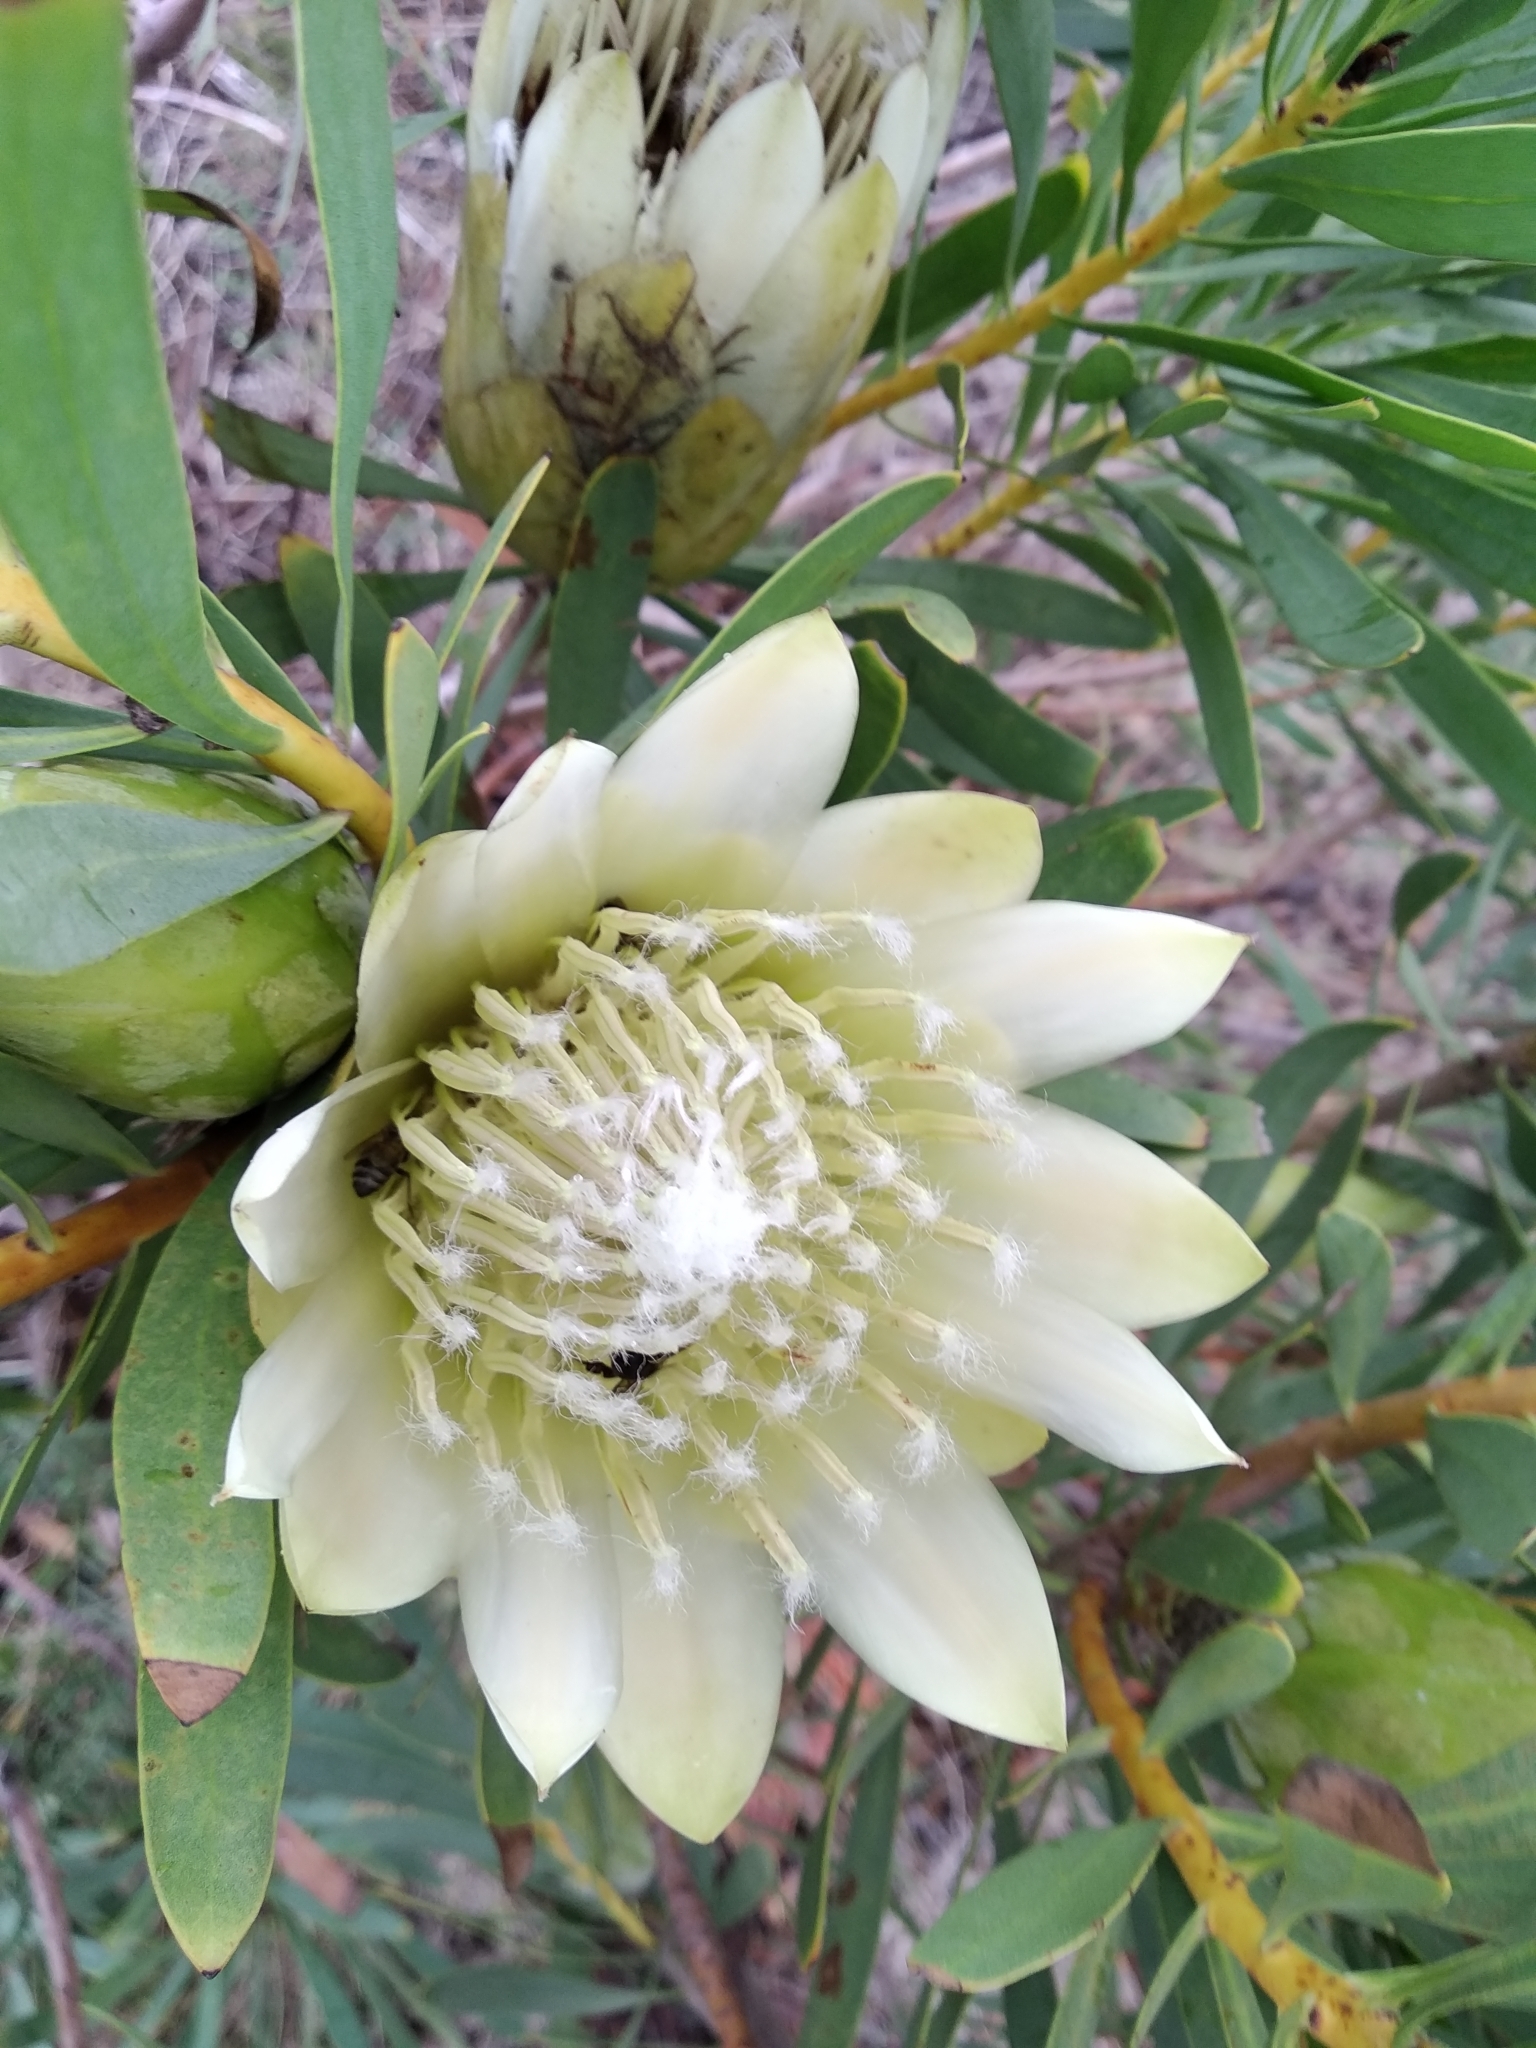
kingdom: Plantae
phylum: Tracheophyta
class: Magnoliopsida
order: Proteales
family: Proteaceae
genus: Protea
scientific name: Protea repens
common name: Sugarbush
